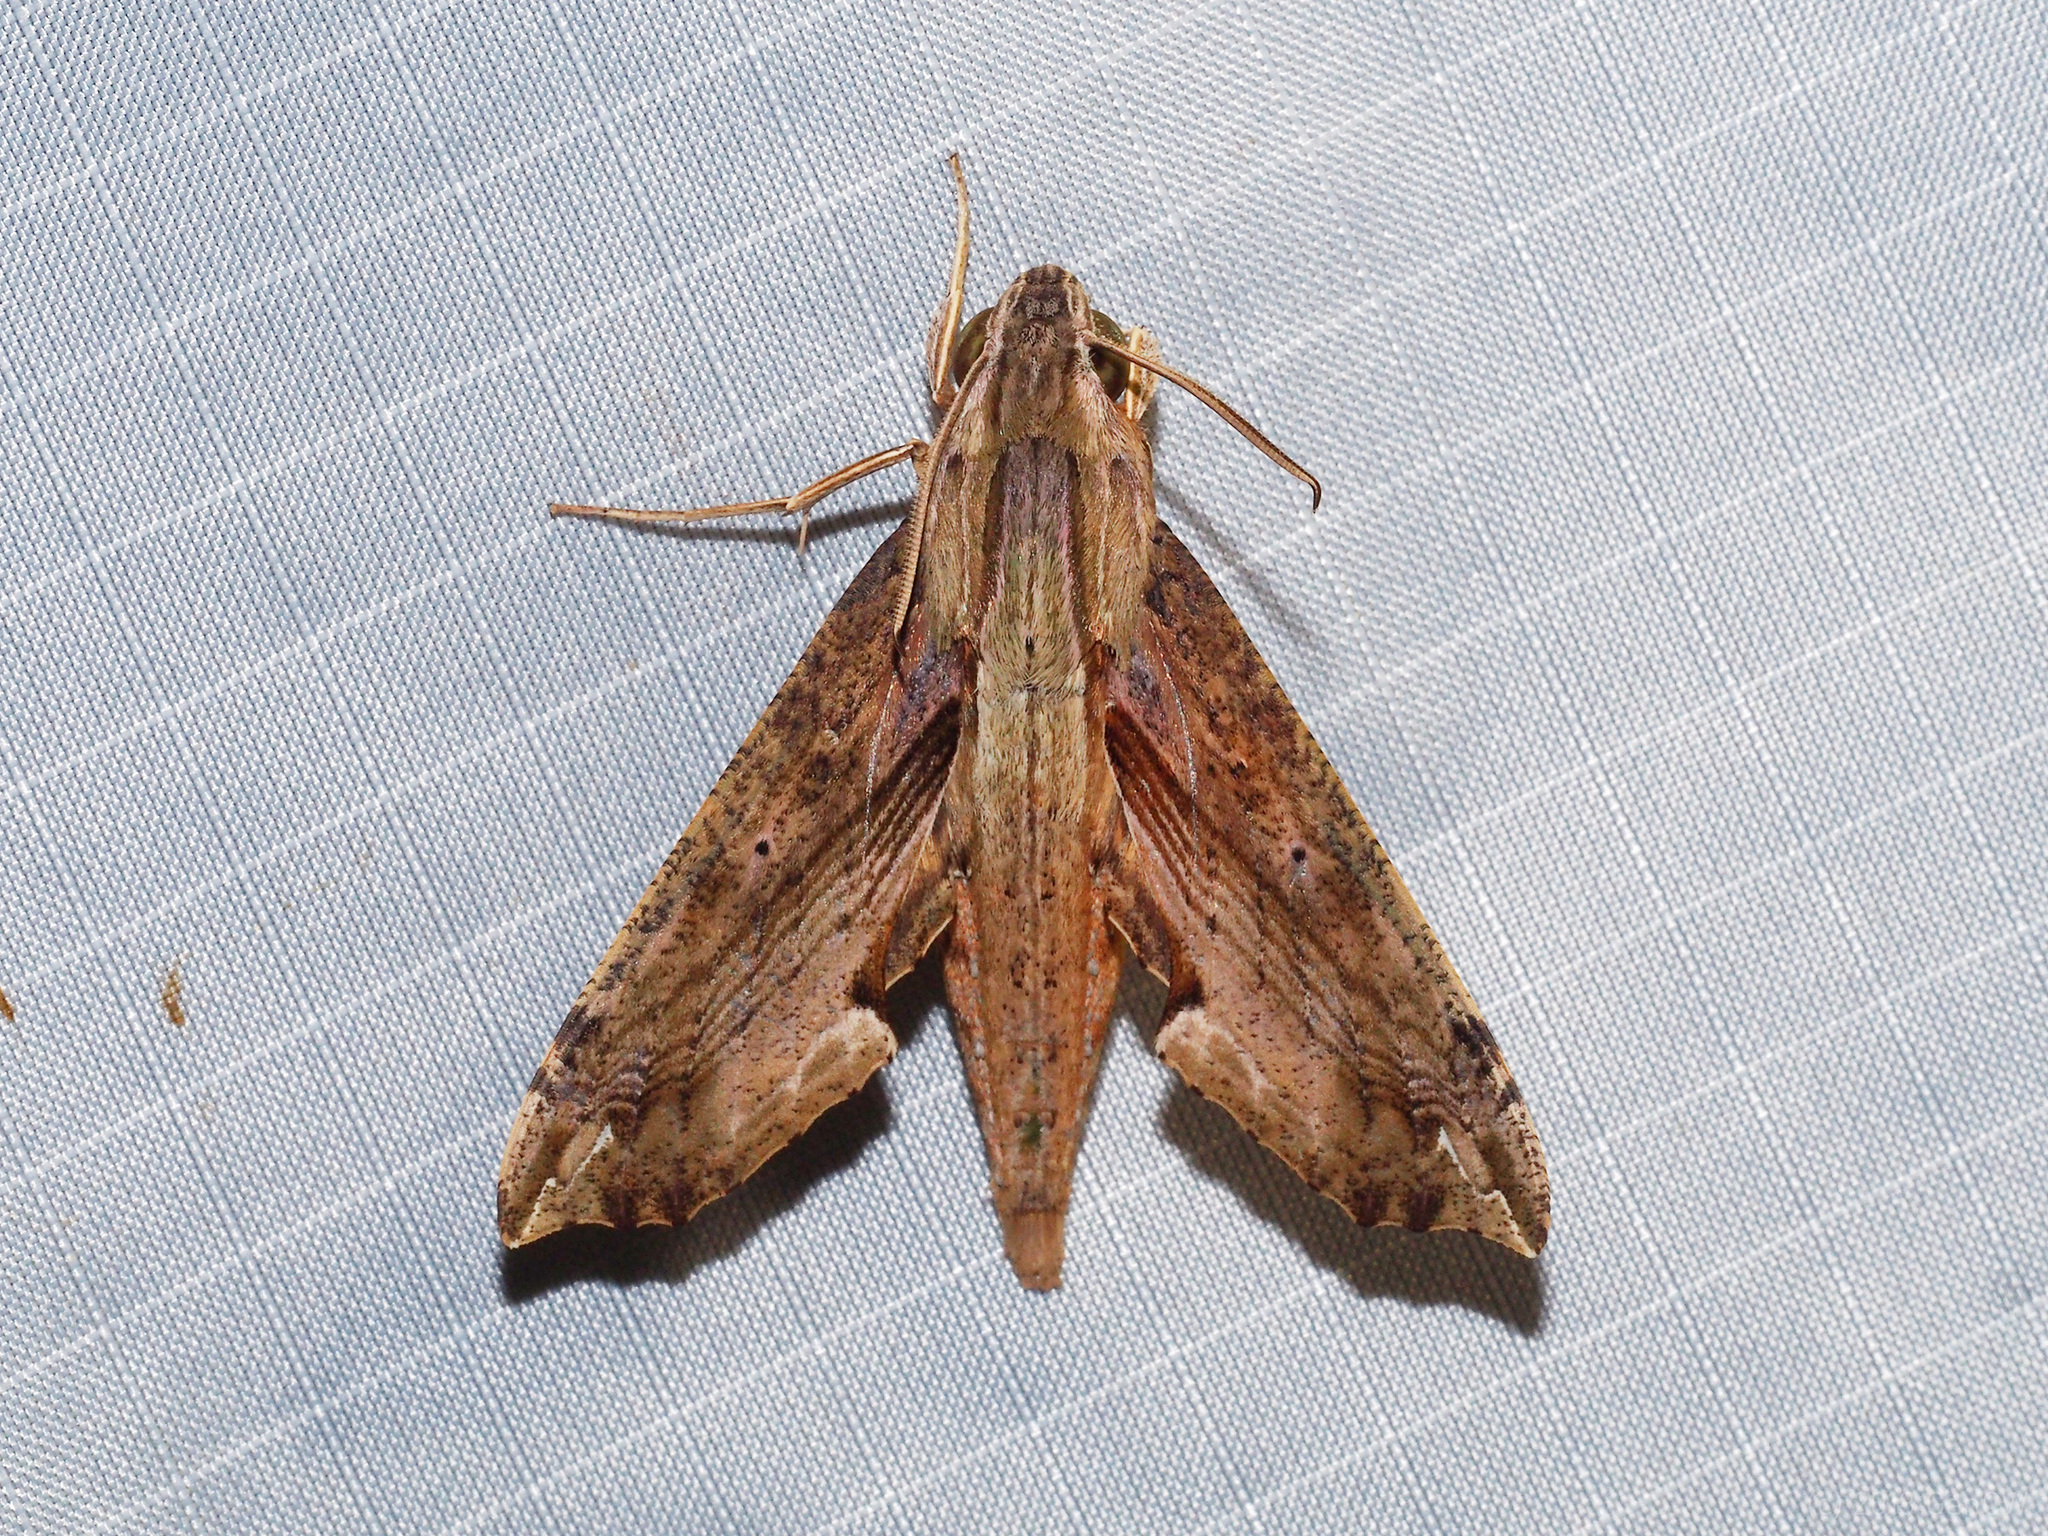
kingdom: Animalia
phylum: Arthropoda
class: Insecta
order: Lepidoptera
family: Sphingidae
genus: Eupanacra
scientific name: Eupanacra regularis
